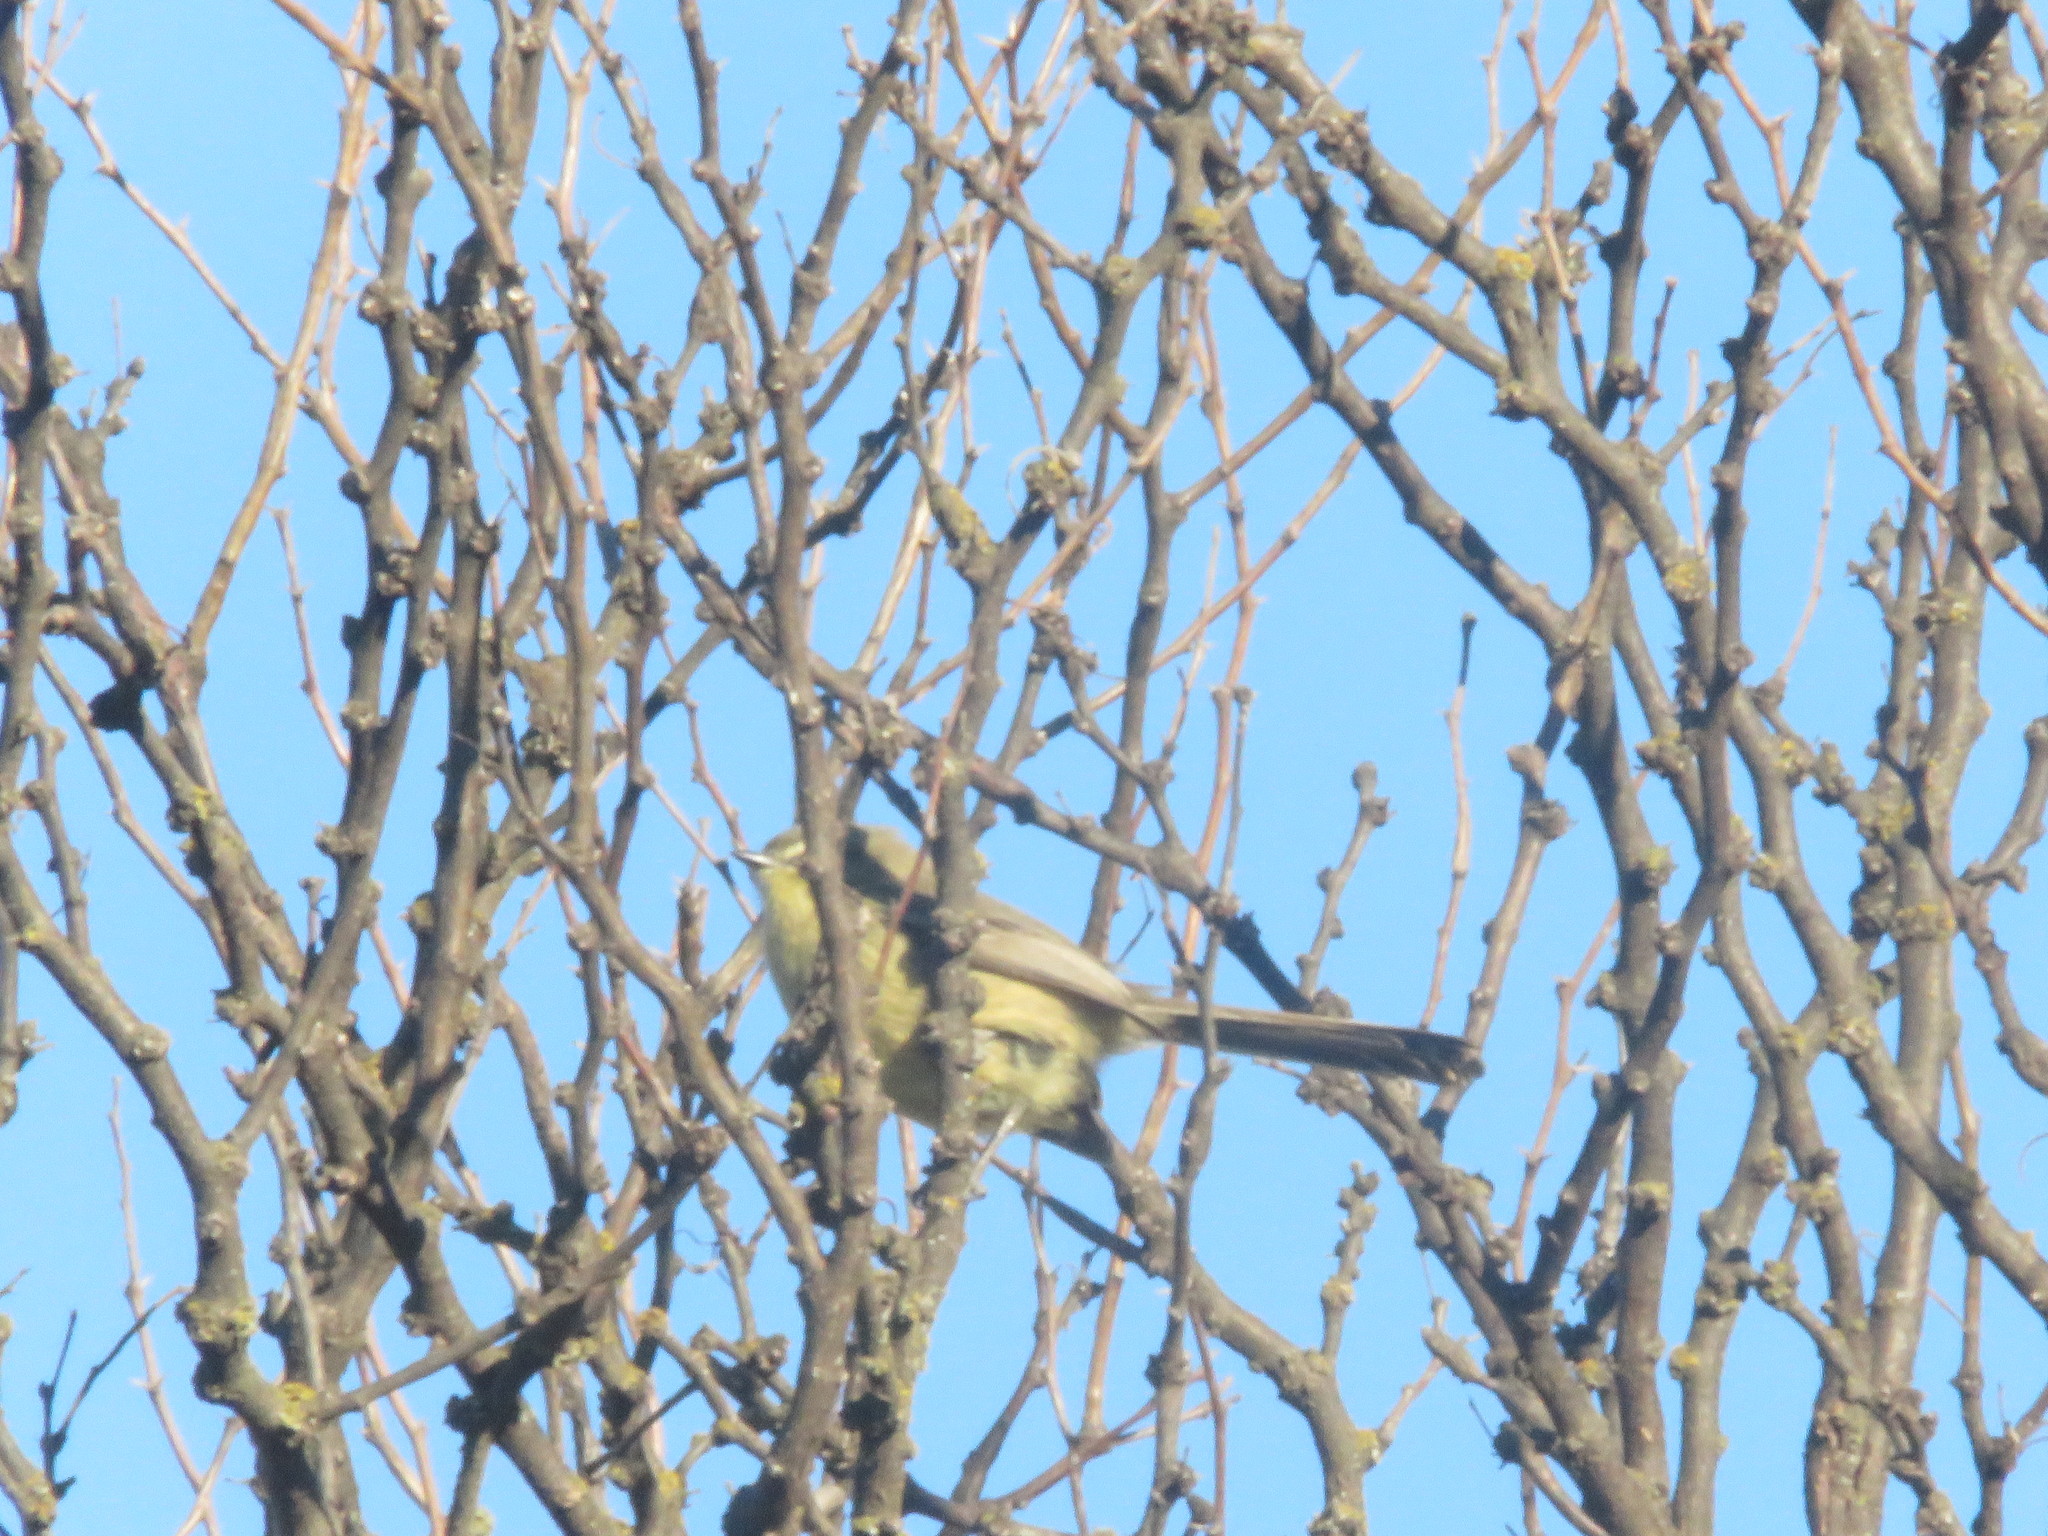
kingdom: Animalia
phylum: Chordata
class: Aves
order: Passeriformes
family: Tyrannidae
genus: Stigmatura
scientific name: Stigmatura budytoides
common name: Greater wagtail-tyrant
